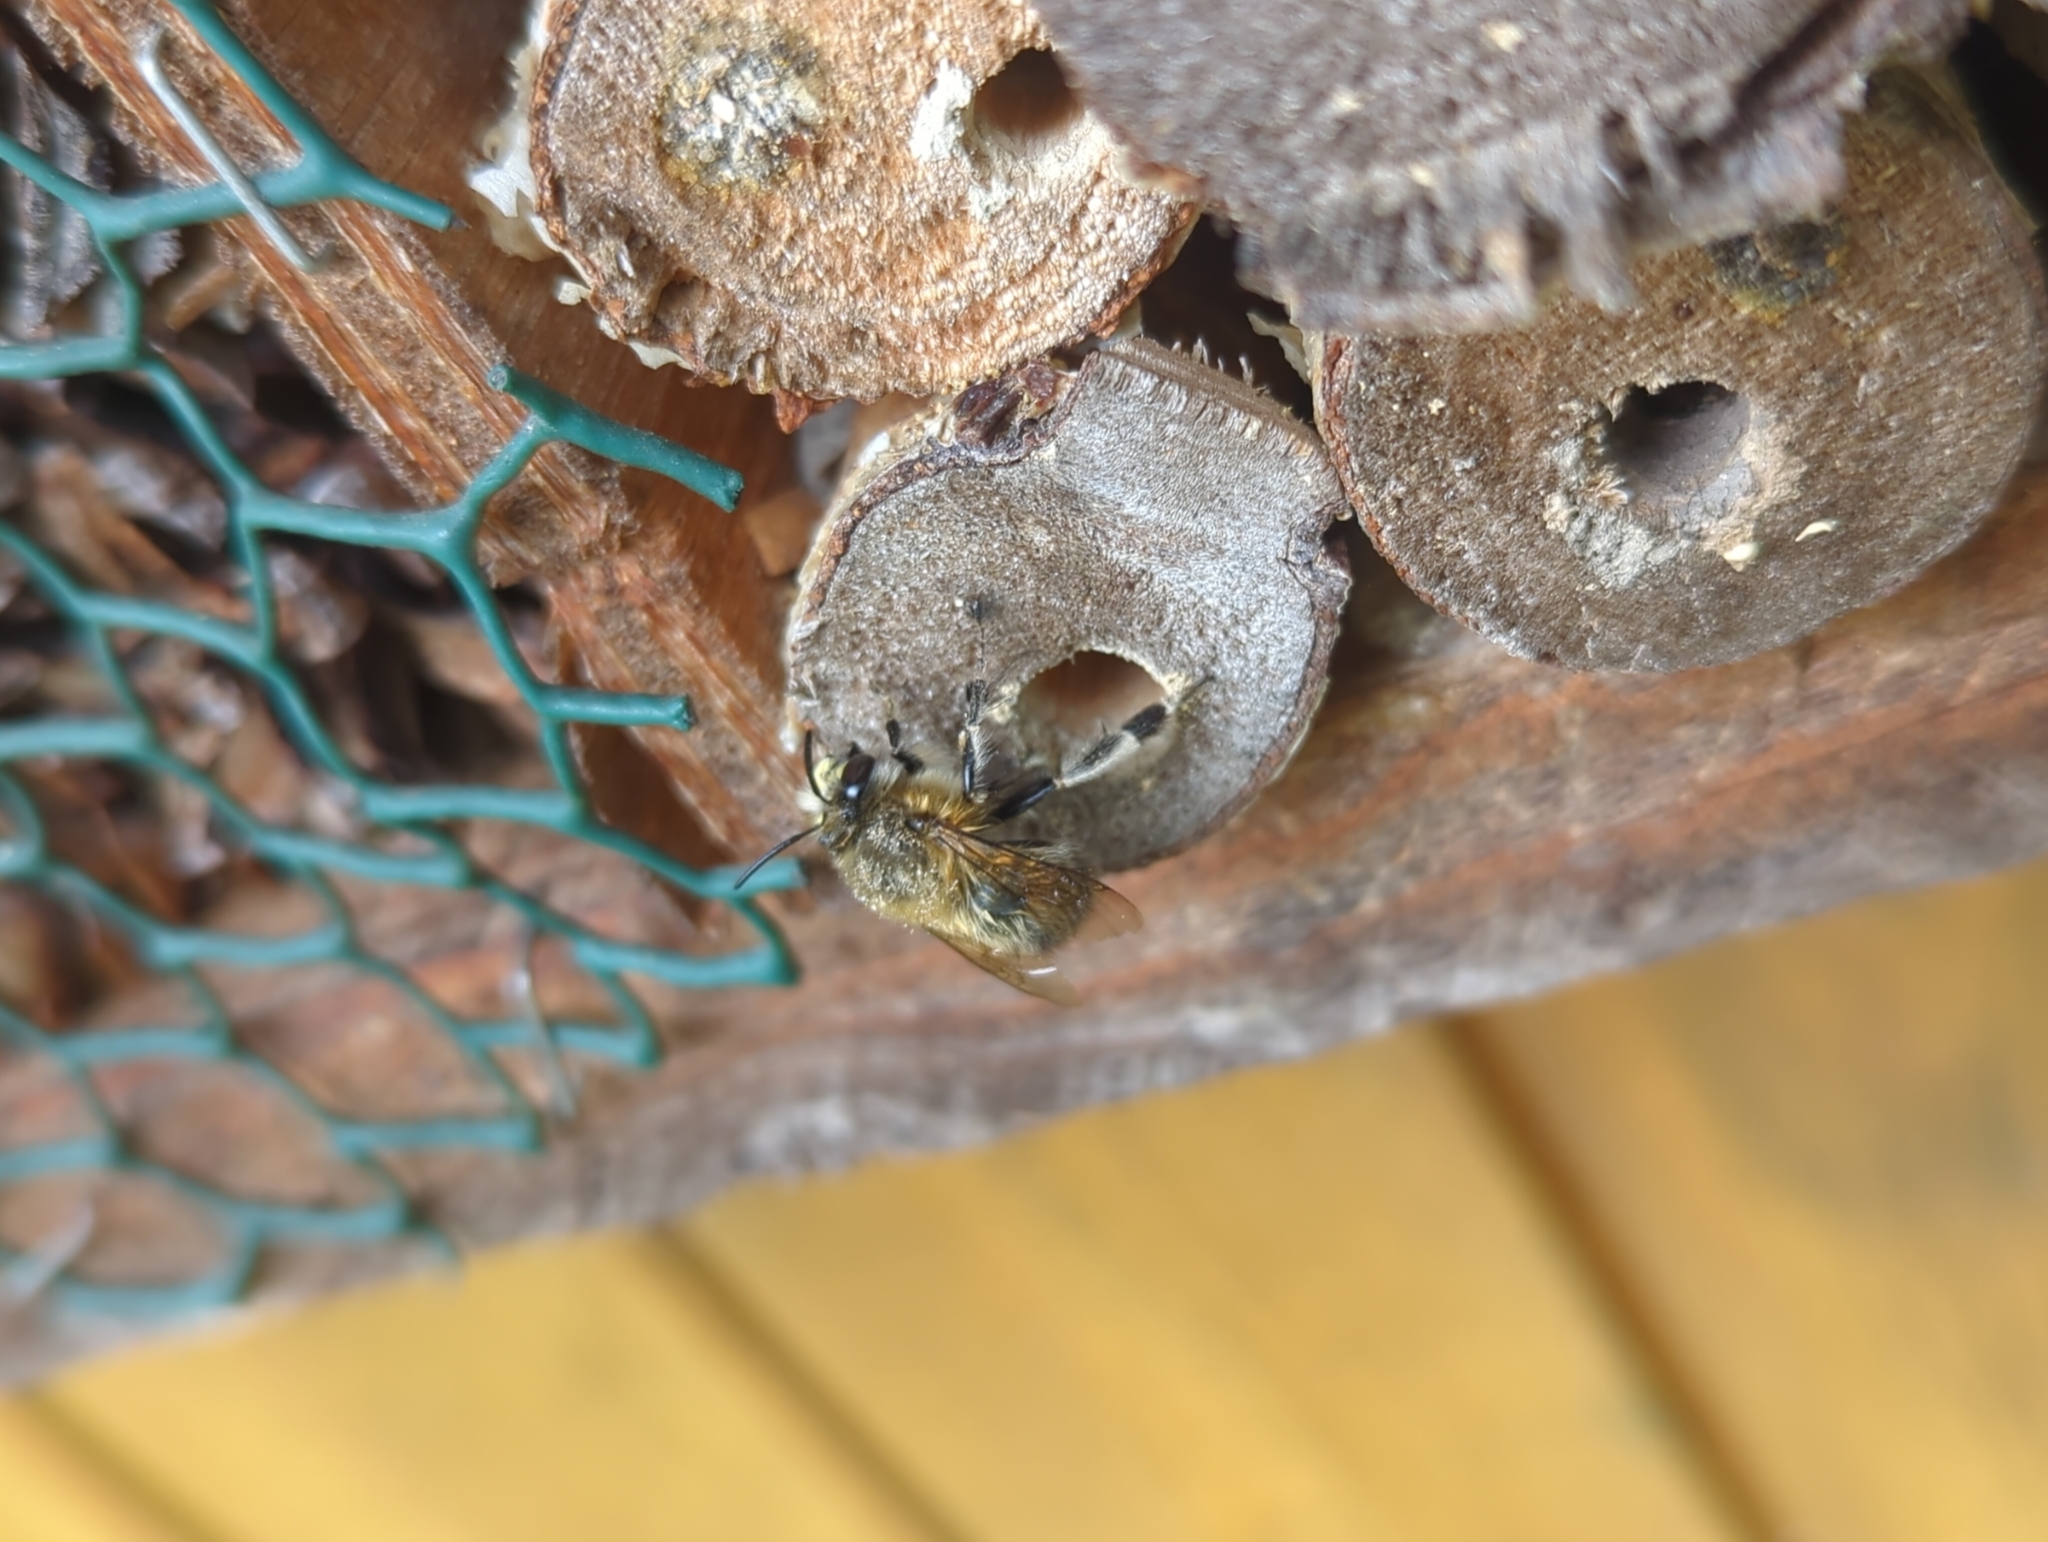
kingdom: Animalia
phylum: Arthropoda
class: Insecta
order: Hymenoptera
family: Apidae
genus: Anthophora
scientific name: Anthophora plumipes
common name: Hairy-footed flower bee
